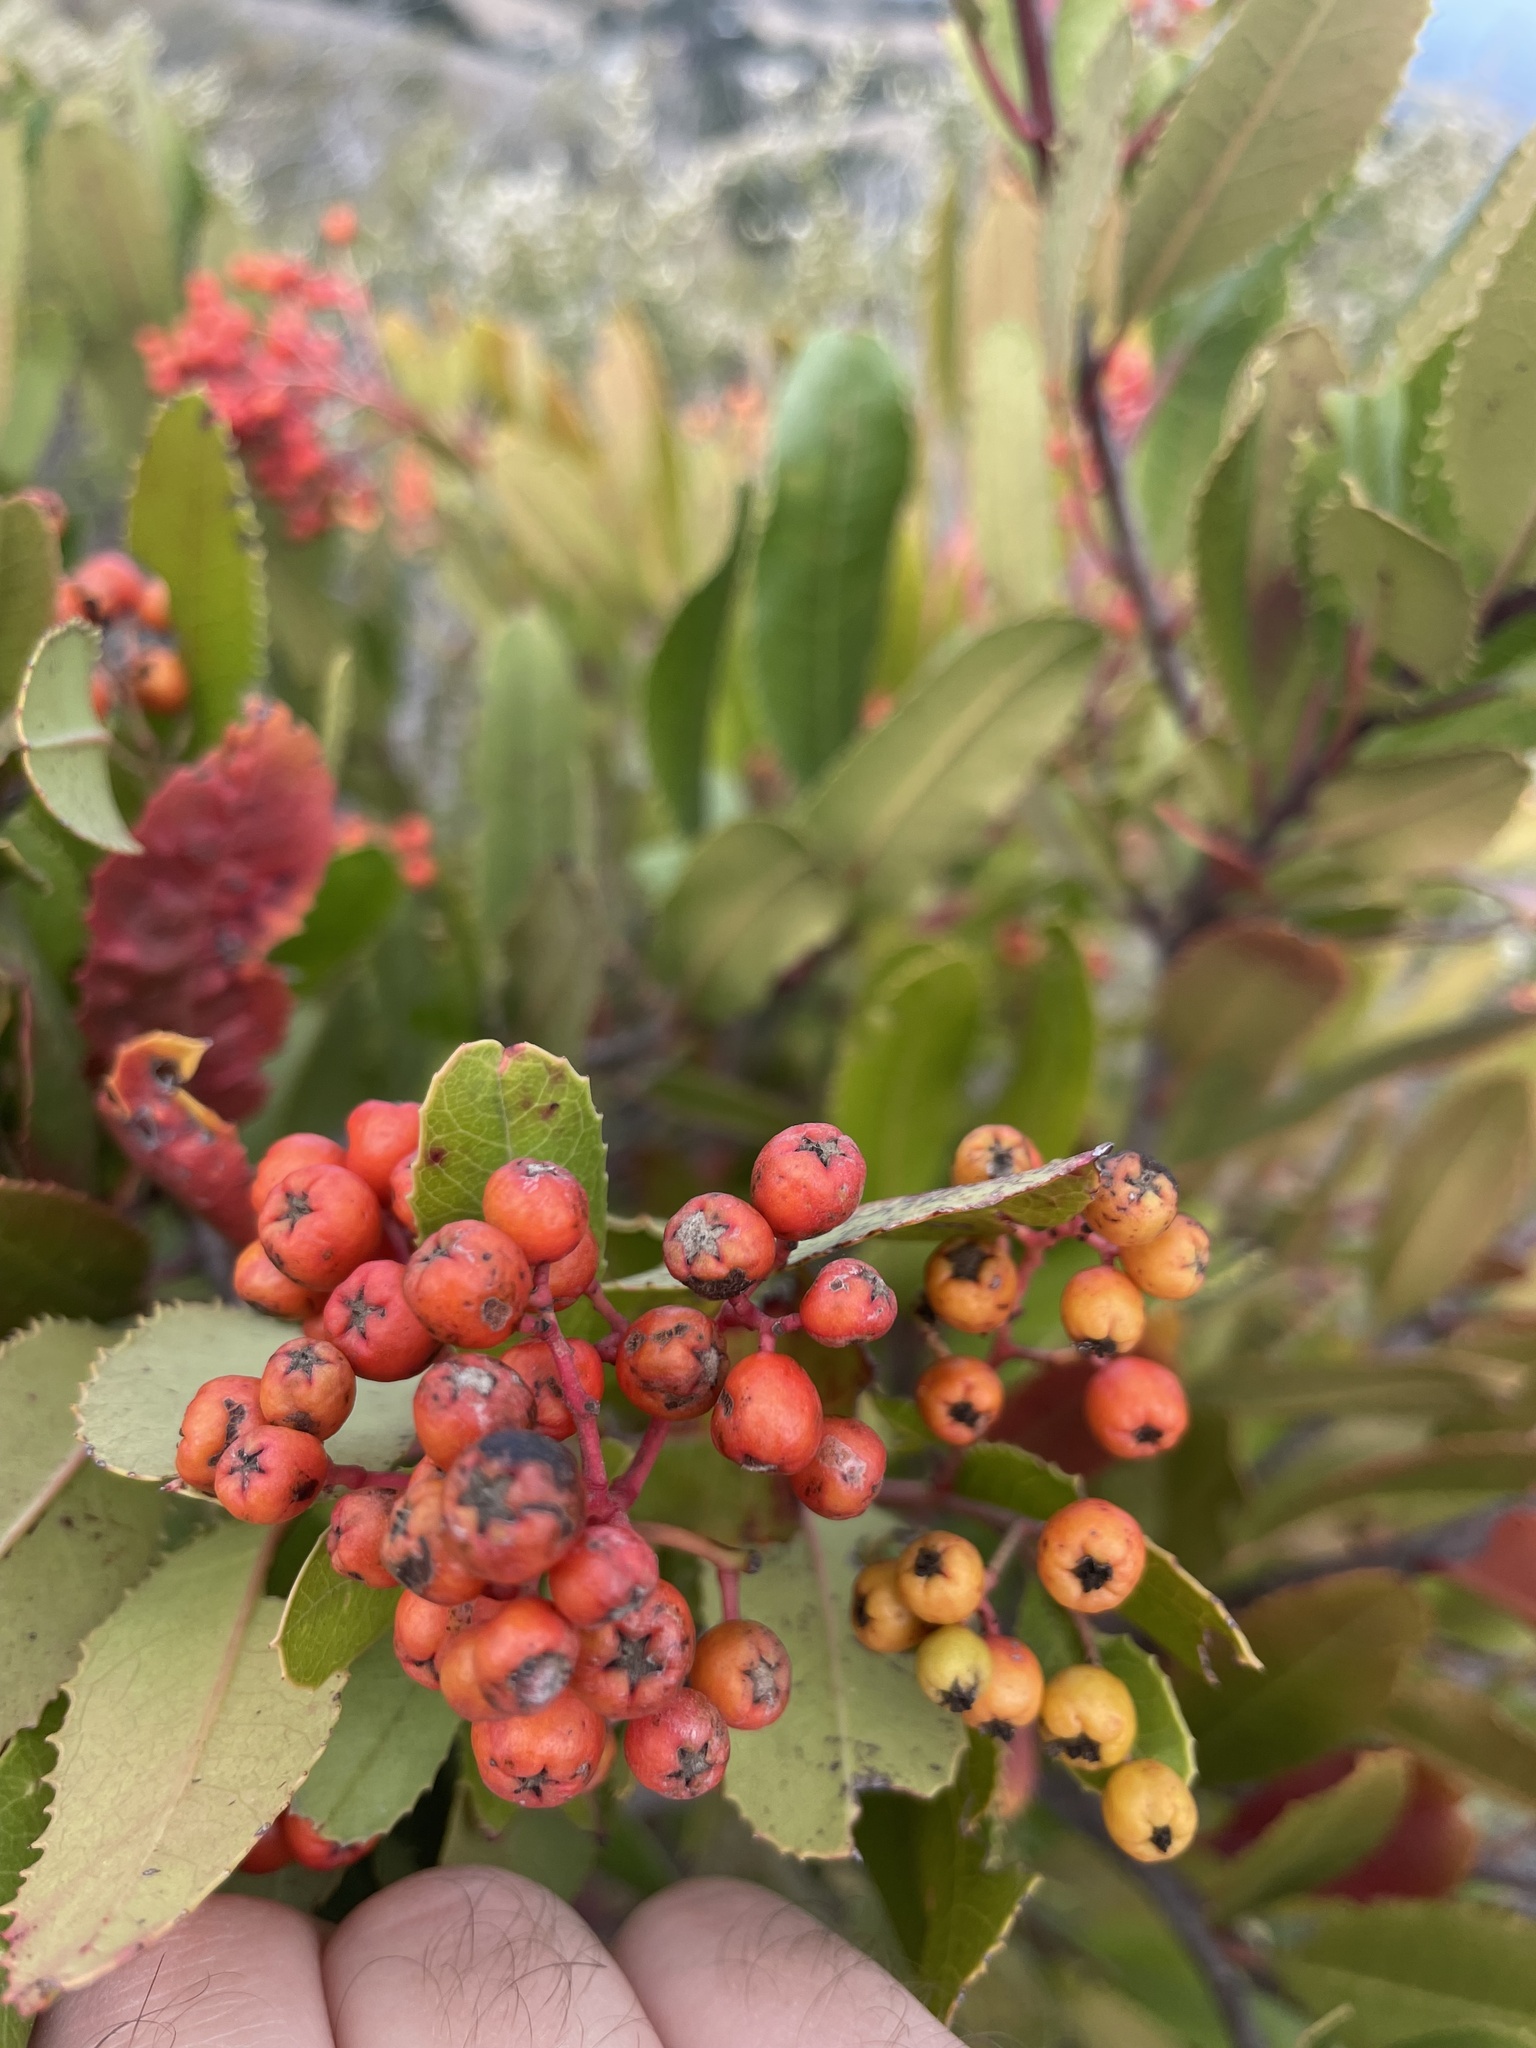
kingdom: Animalia
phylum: Arthropoda
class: Insecta
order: Diptera
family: Cecidomyiidae
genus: Asphondylia
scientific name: Asphondylia photiniae
